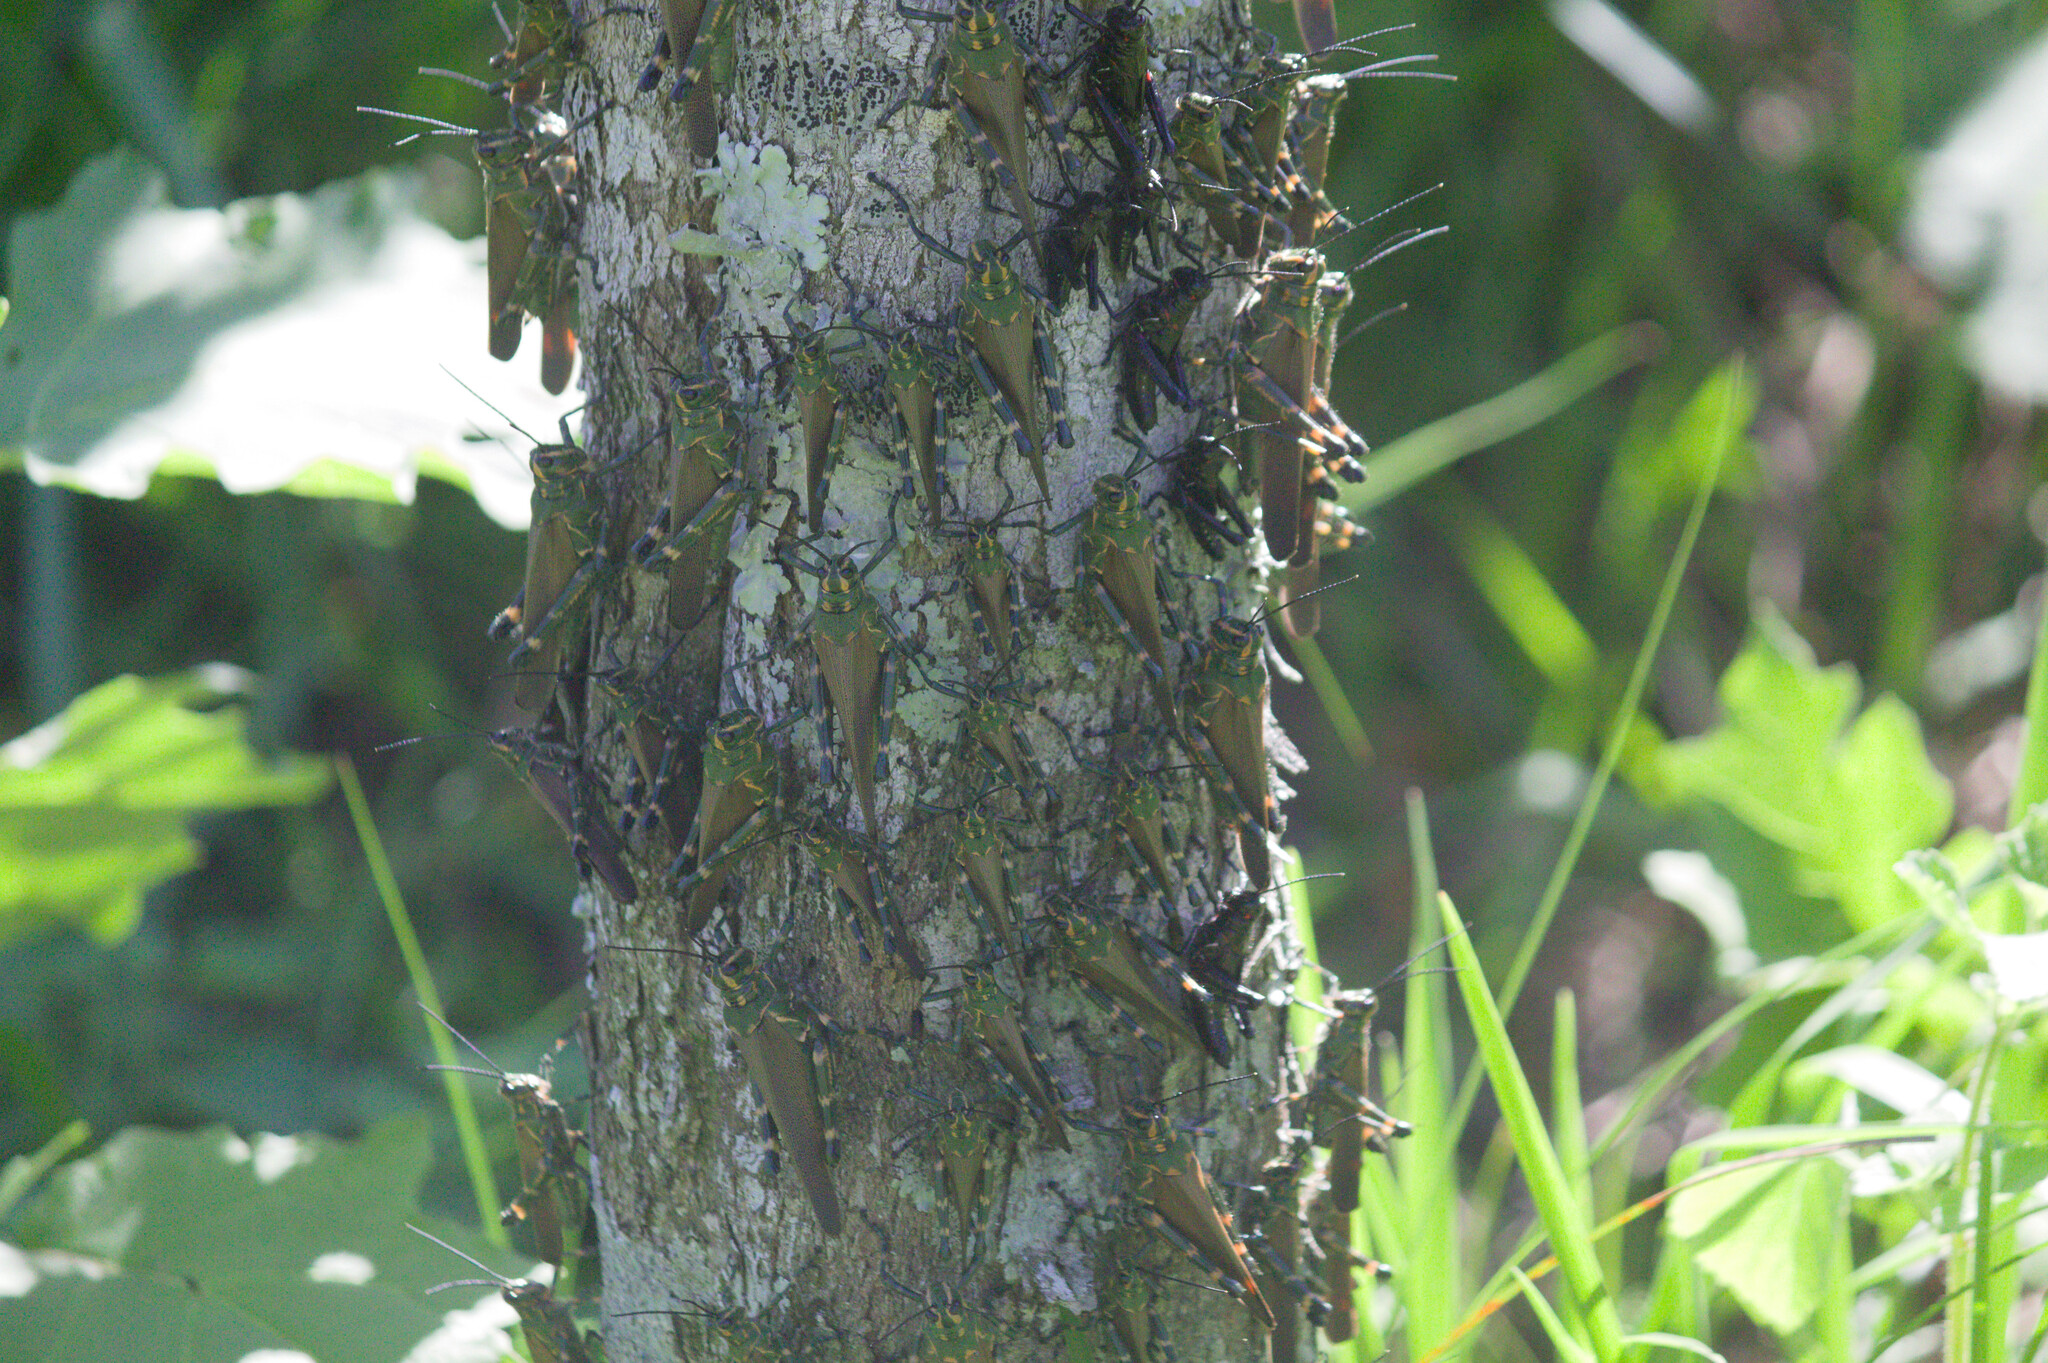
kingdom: Animalia
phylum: Arthropoda
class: Insecta
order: Orthoptera
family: Romaleidae
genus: Chromacris
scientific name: Chromacris speciosa
